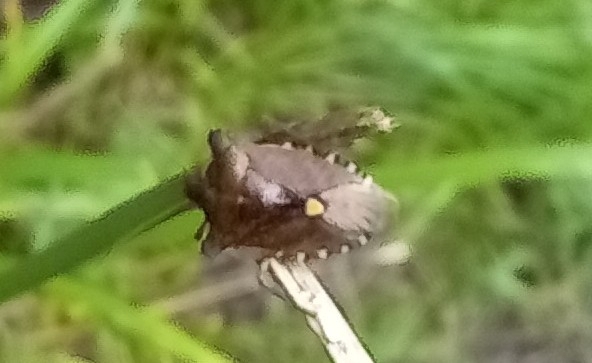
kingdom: Animalia
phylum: Arthropoda
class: Insecta
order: Hemiptera
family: Pentatomidae
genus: Pentatoma
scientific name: Pentatoma rufipes
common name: Forest bug
